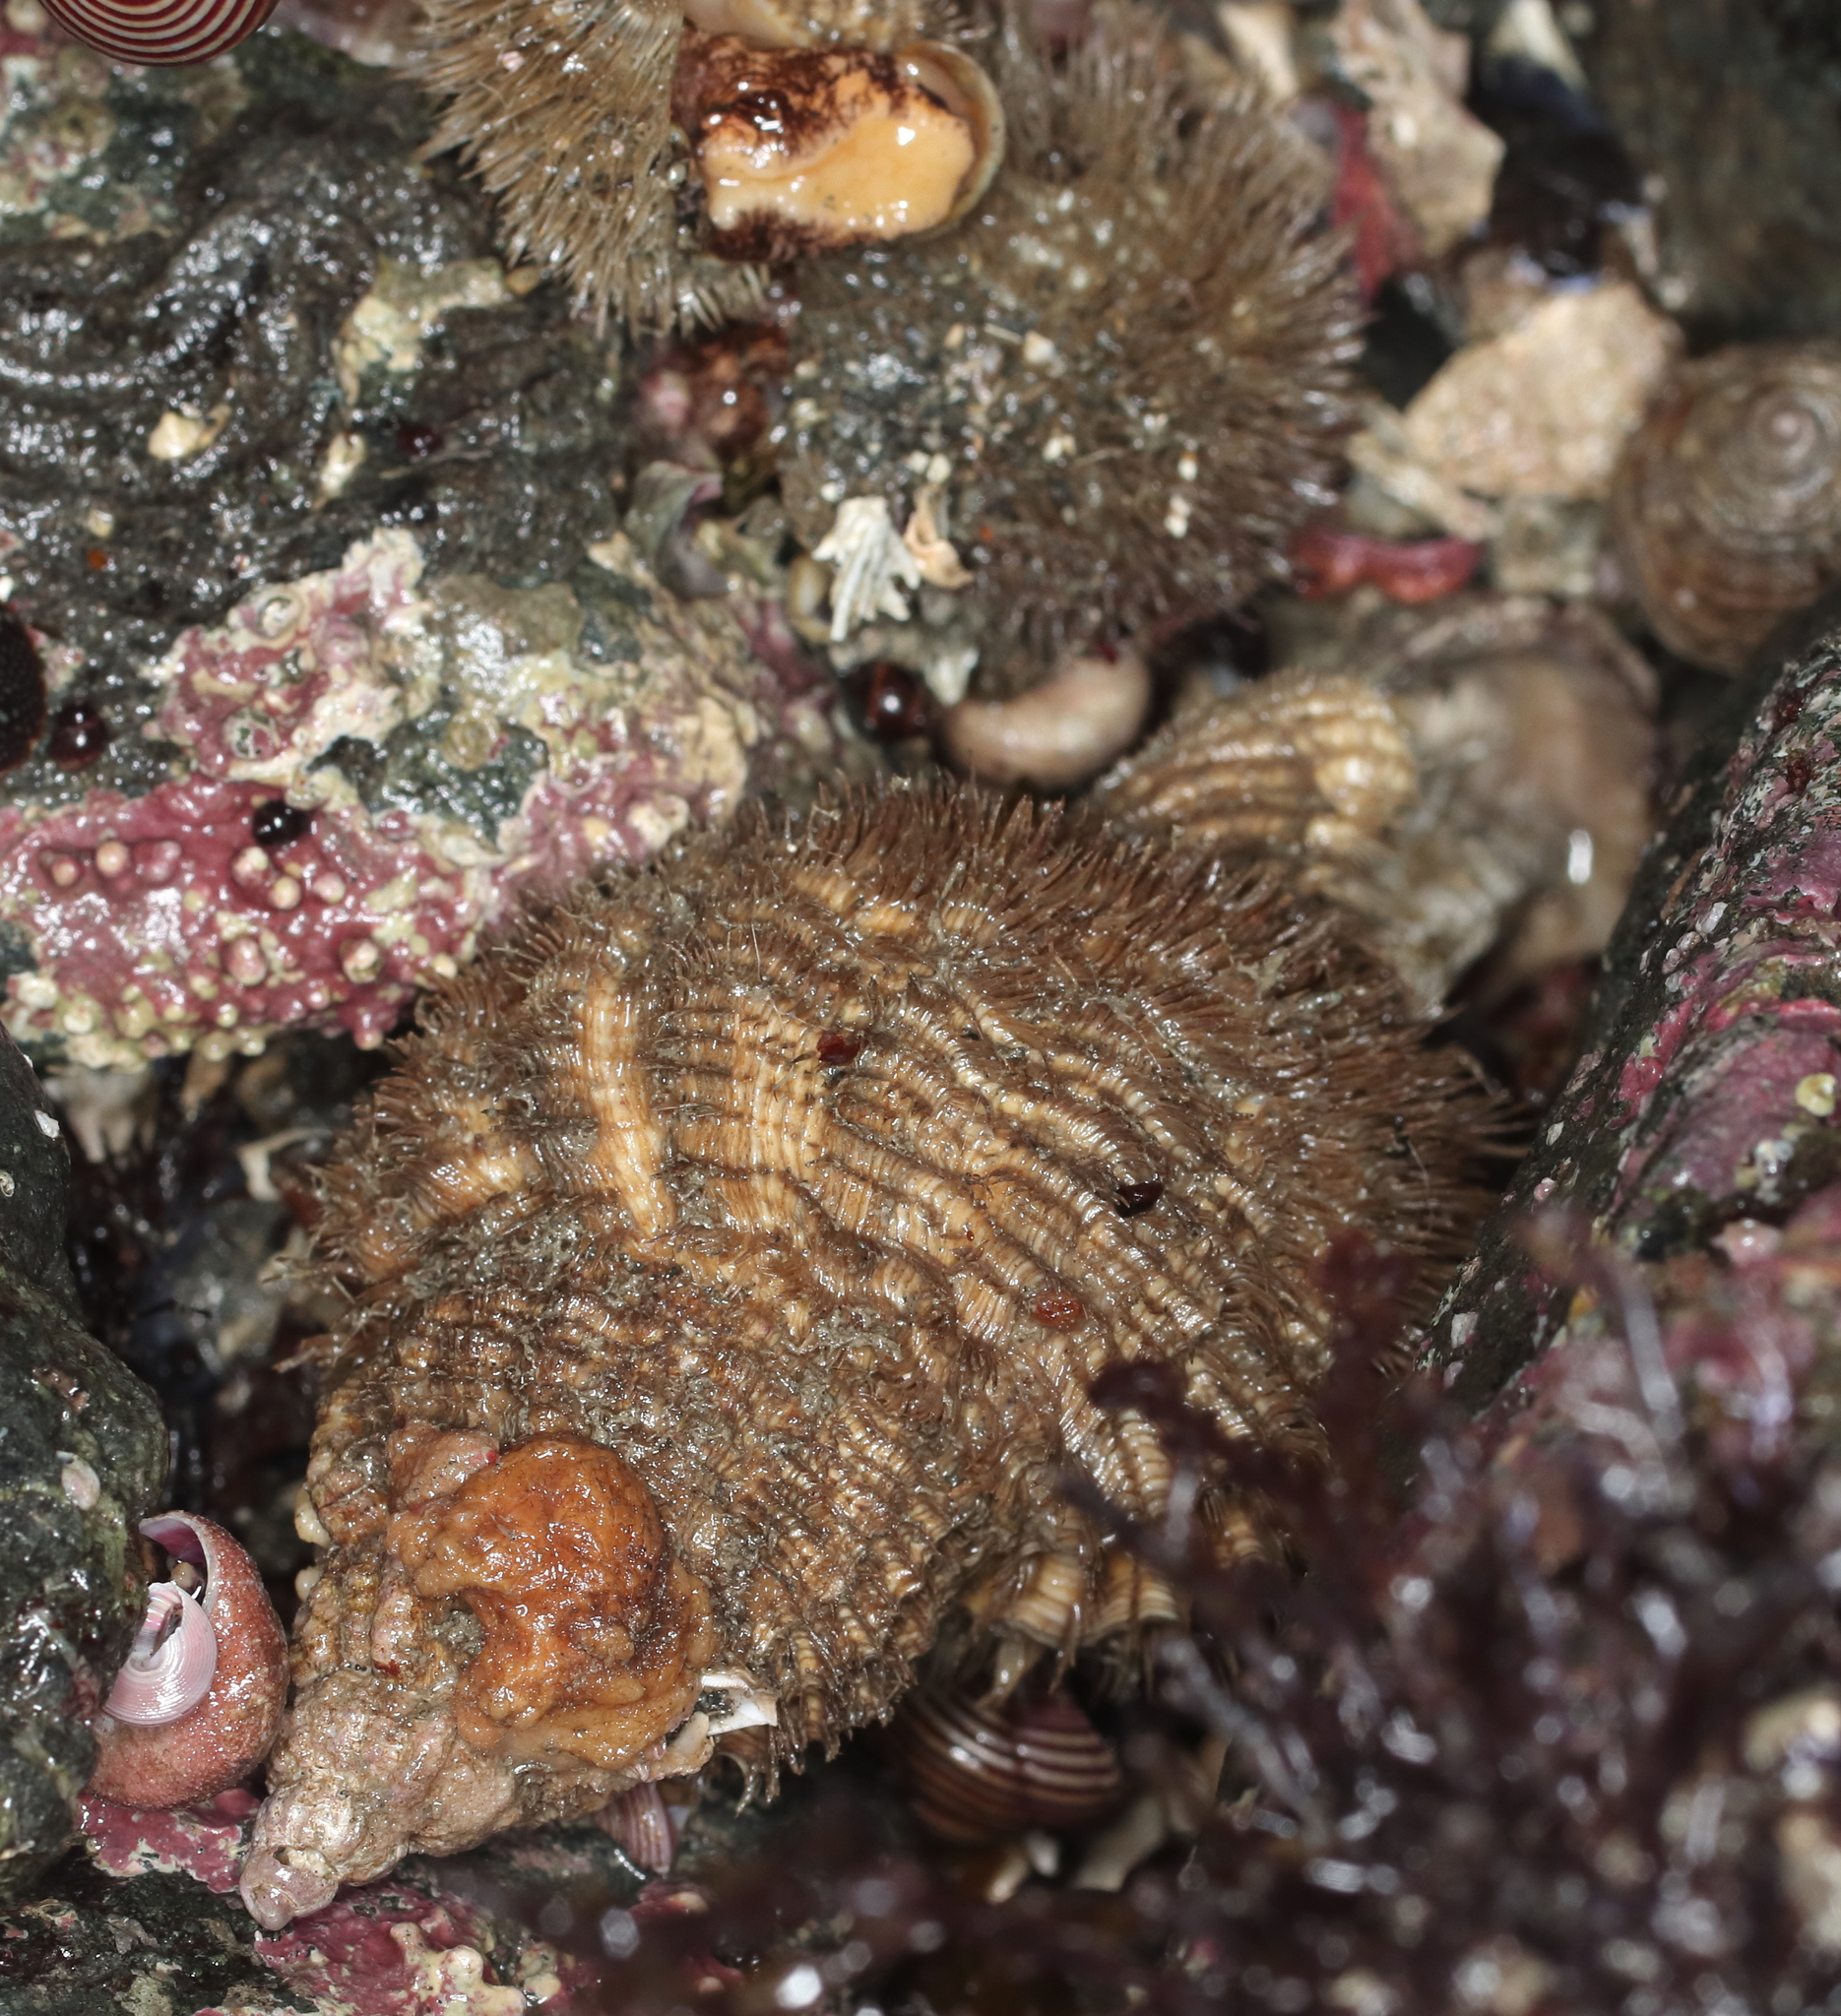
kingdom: Animalia
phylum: Mollusca
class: Gastropoda
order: Littorinimorpha
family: Cymatiidae
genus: Fusitriton
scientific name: Fusitriton oregonensis
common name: Oregon hairy triton
